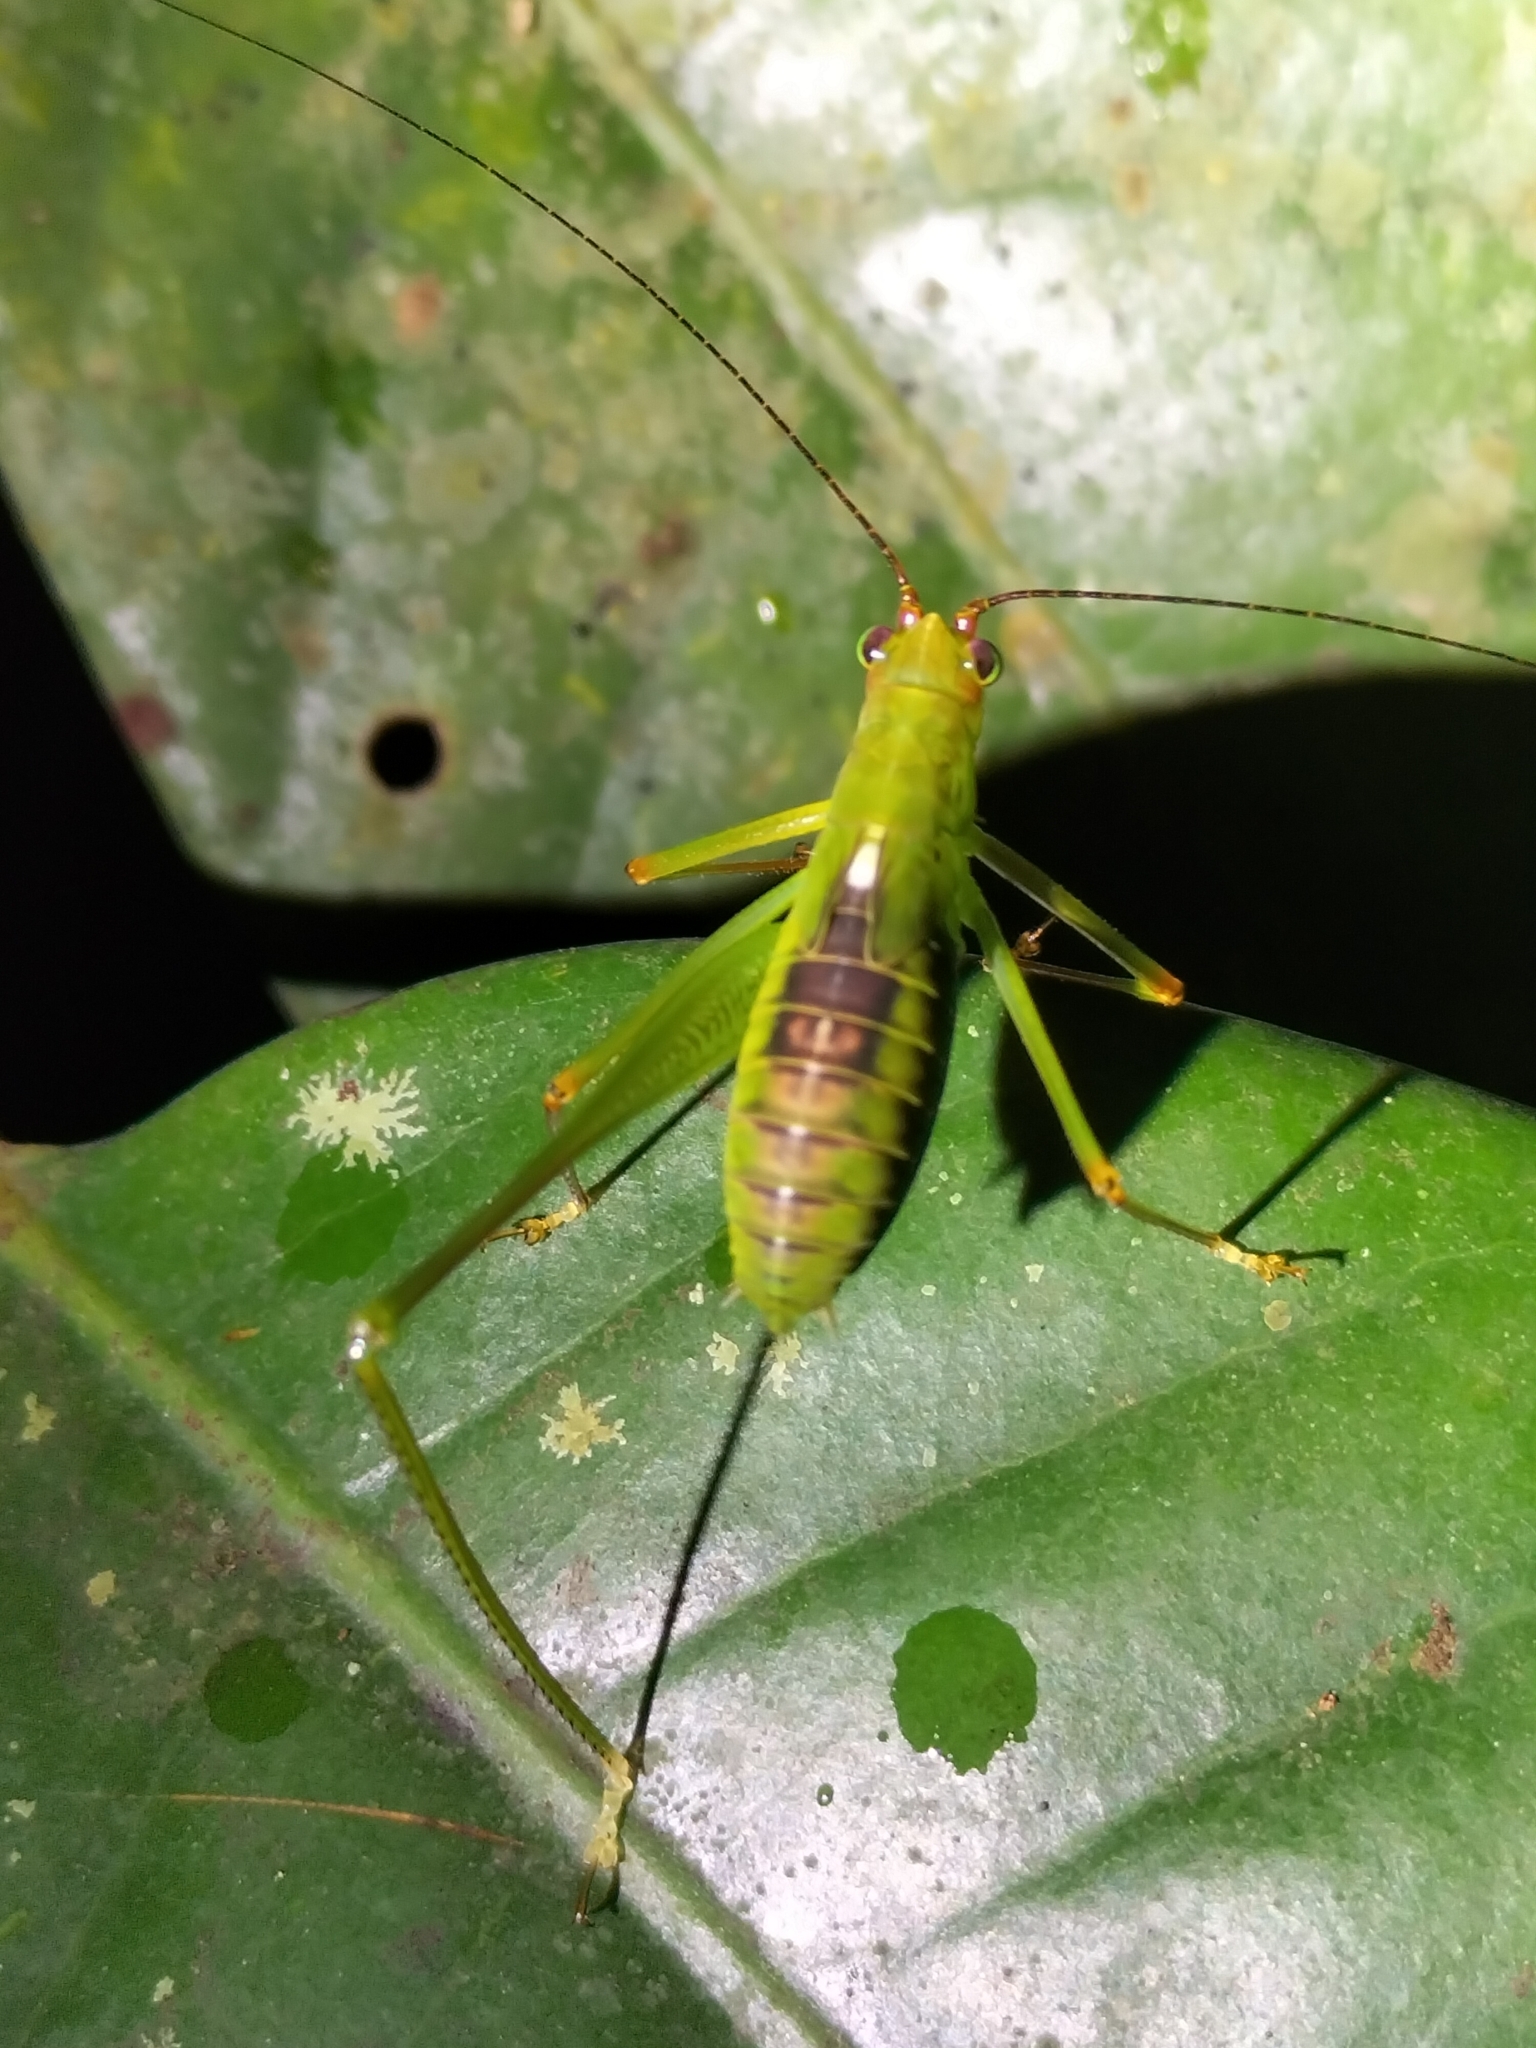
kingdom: Animalia
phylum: Arthropoda
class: Insecta
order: Orthoptera
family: Tettigoniidae
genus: Leucopodoptera
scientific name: Leucopodoptera eumundii
